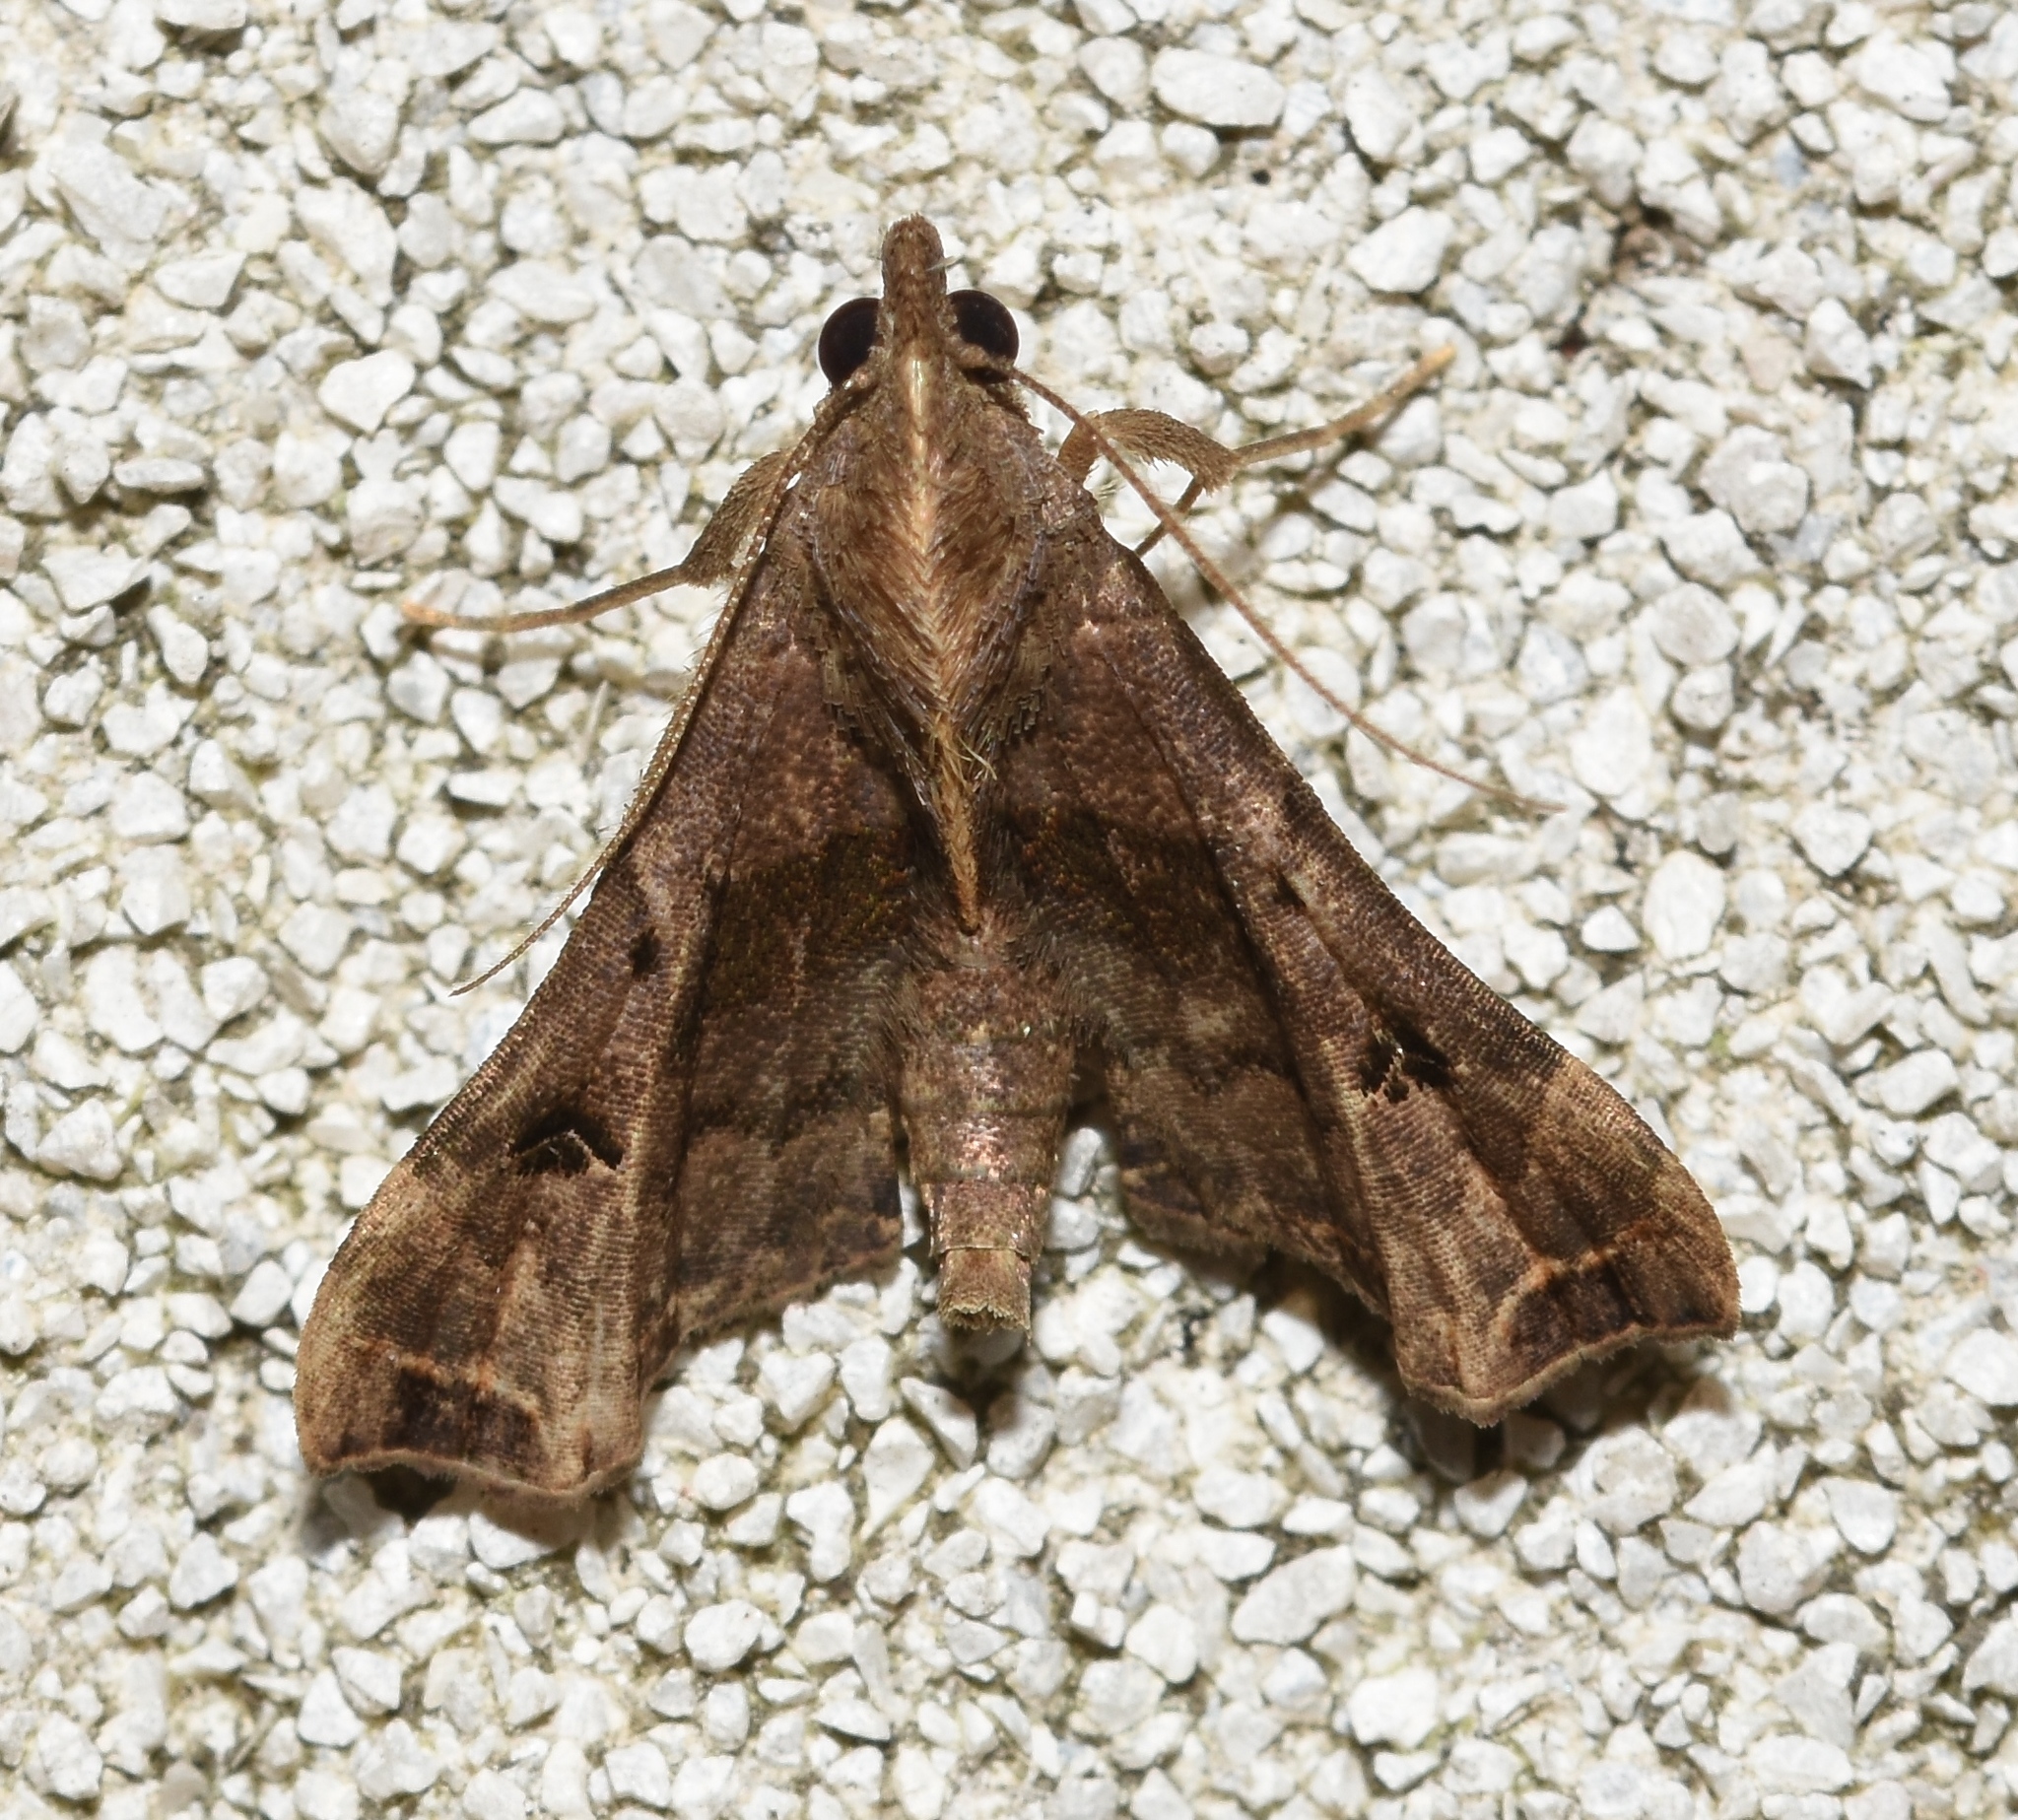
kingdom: Animalia
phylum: Arthropoda
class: Insecta
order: Lepidoptera
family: Erebidae
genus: Palthis
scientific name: Palthis asopialis
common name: Faint-spotted palthis moth
